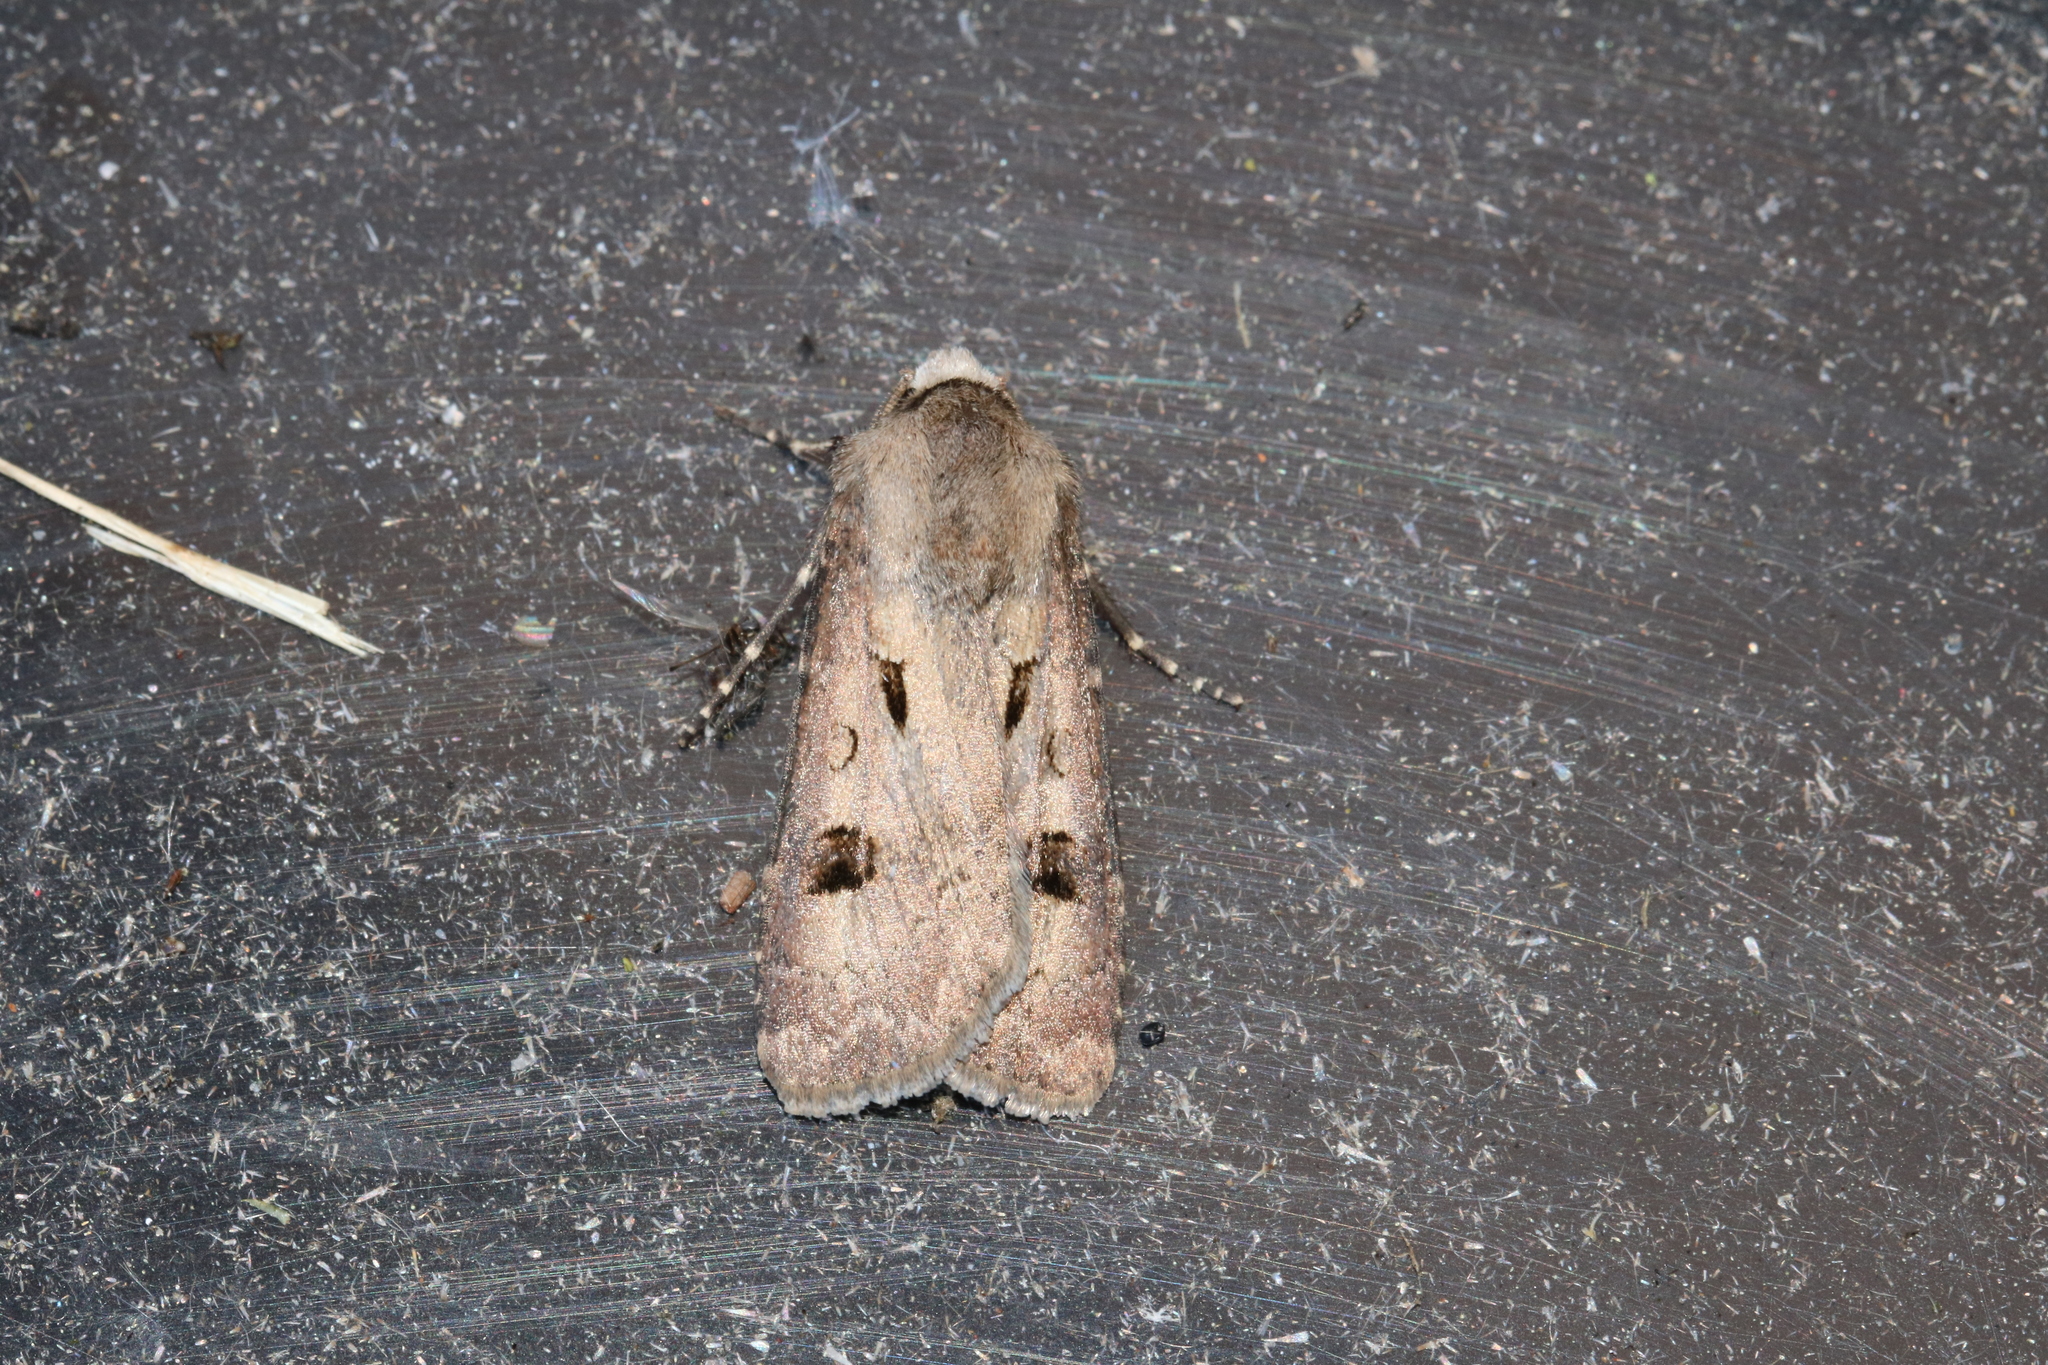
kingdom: Animalia
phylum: Arthropoda
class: Insecta
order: Lepidoptera
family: Noctuidae
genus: Agrotis
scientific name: Agrotis exclamationis
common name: Heart and dart
